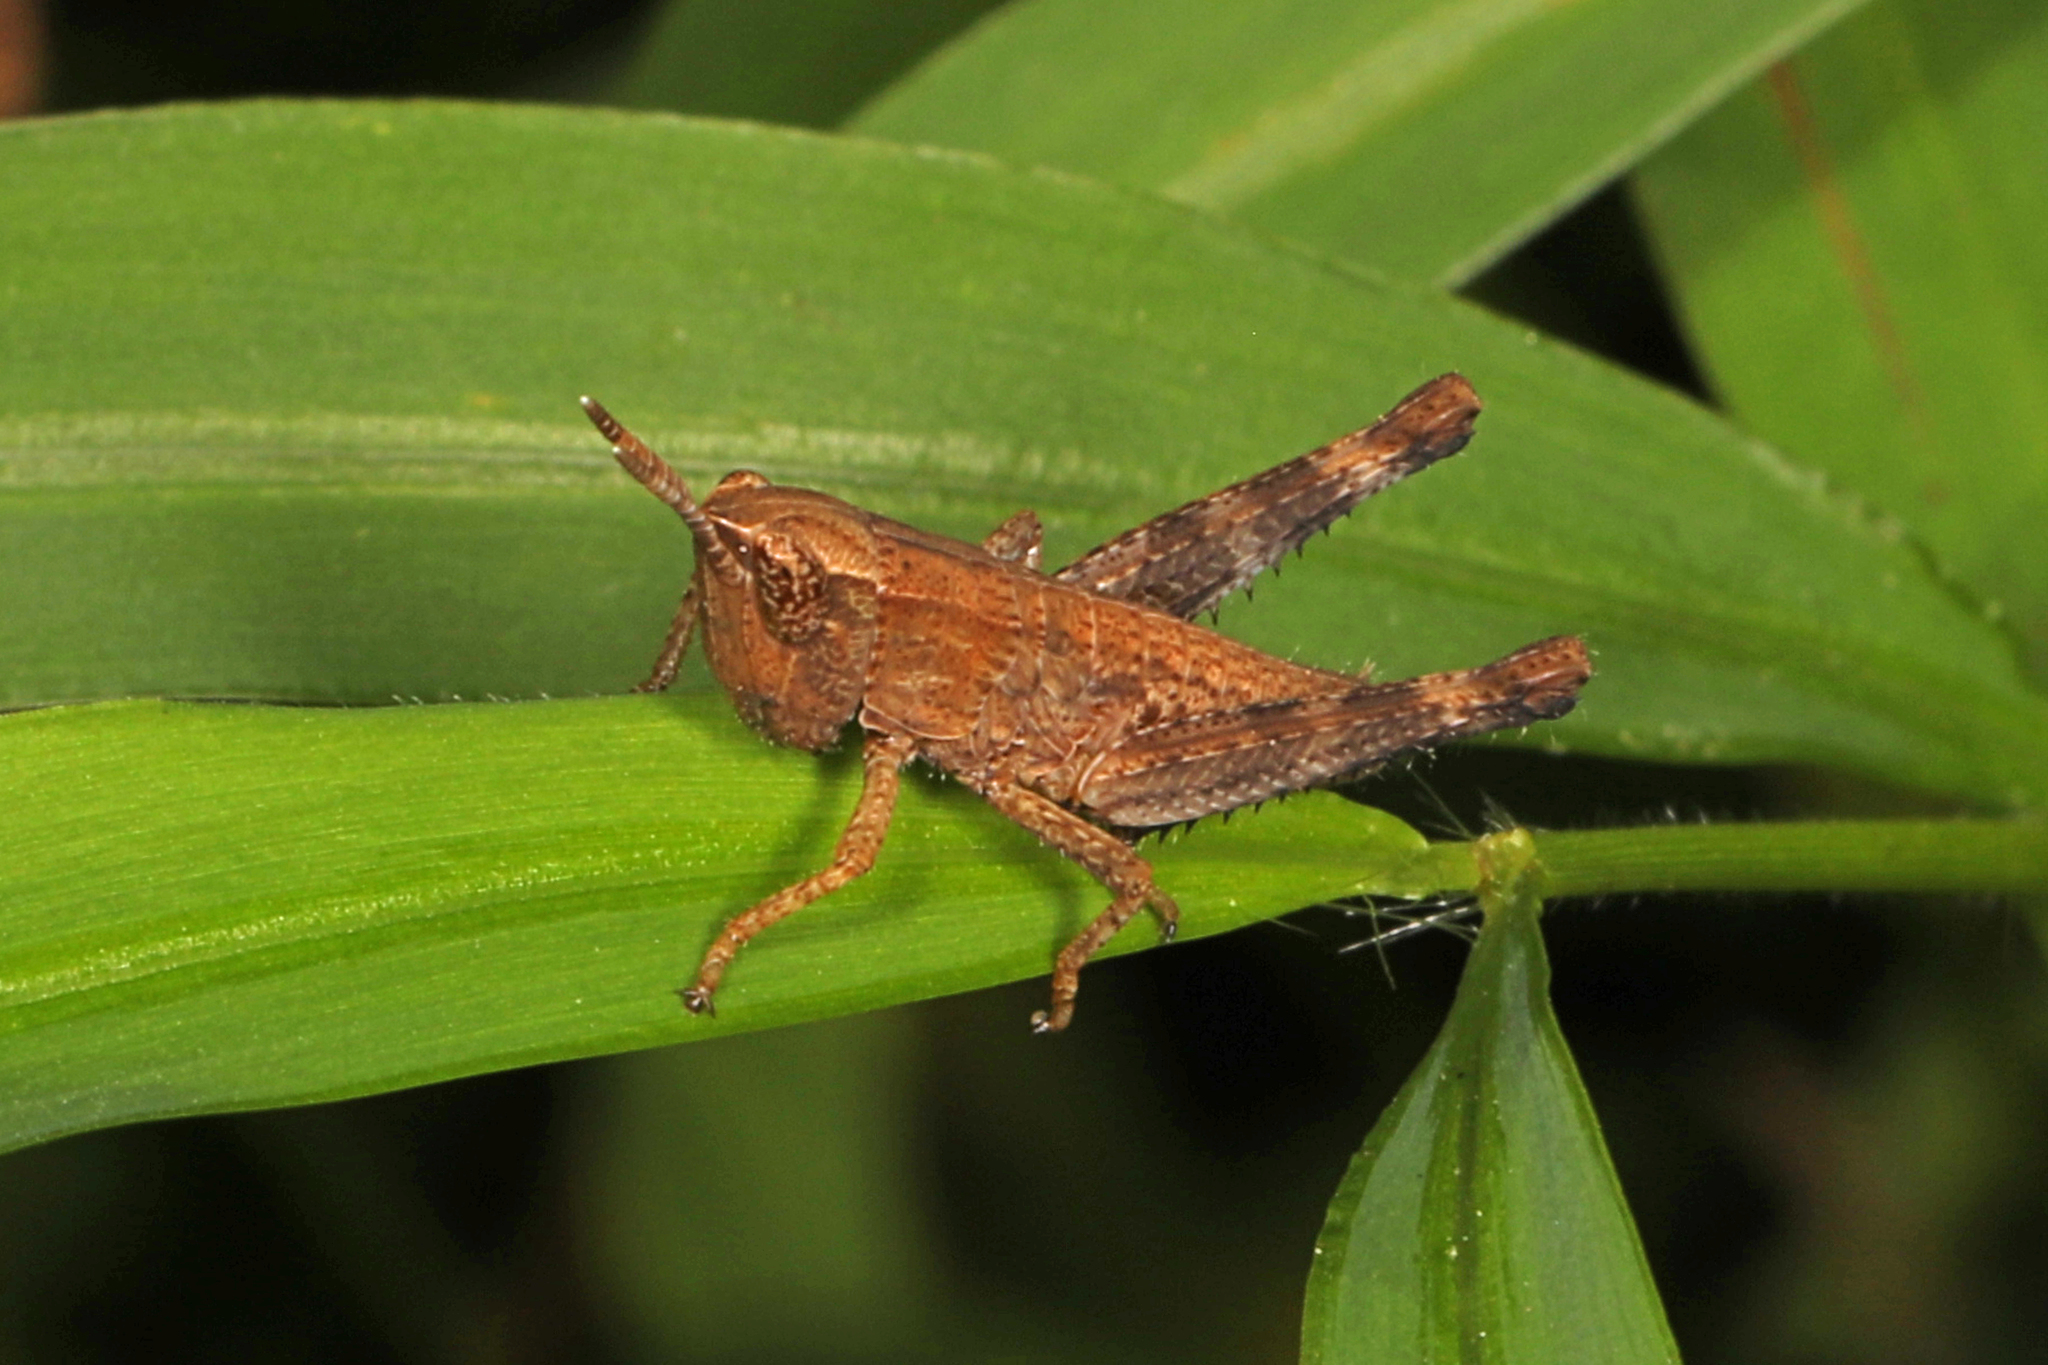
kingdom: Animalia
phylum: Arthropoda
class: Insecta
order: Orthoptera
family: Acrididae
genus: Dichromorpha
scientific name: Dichromorpha viridis
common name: Short-winged green grasshopper
